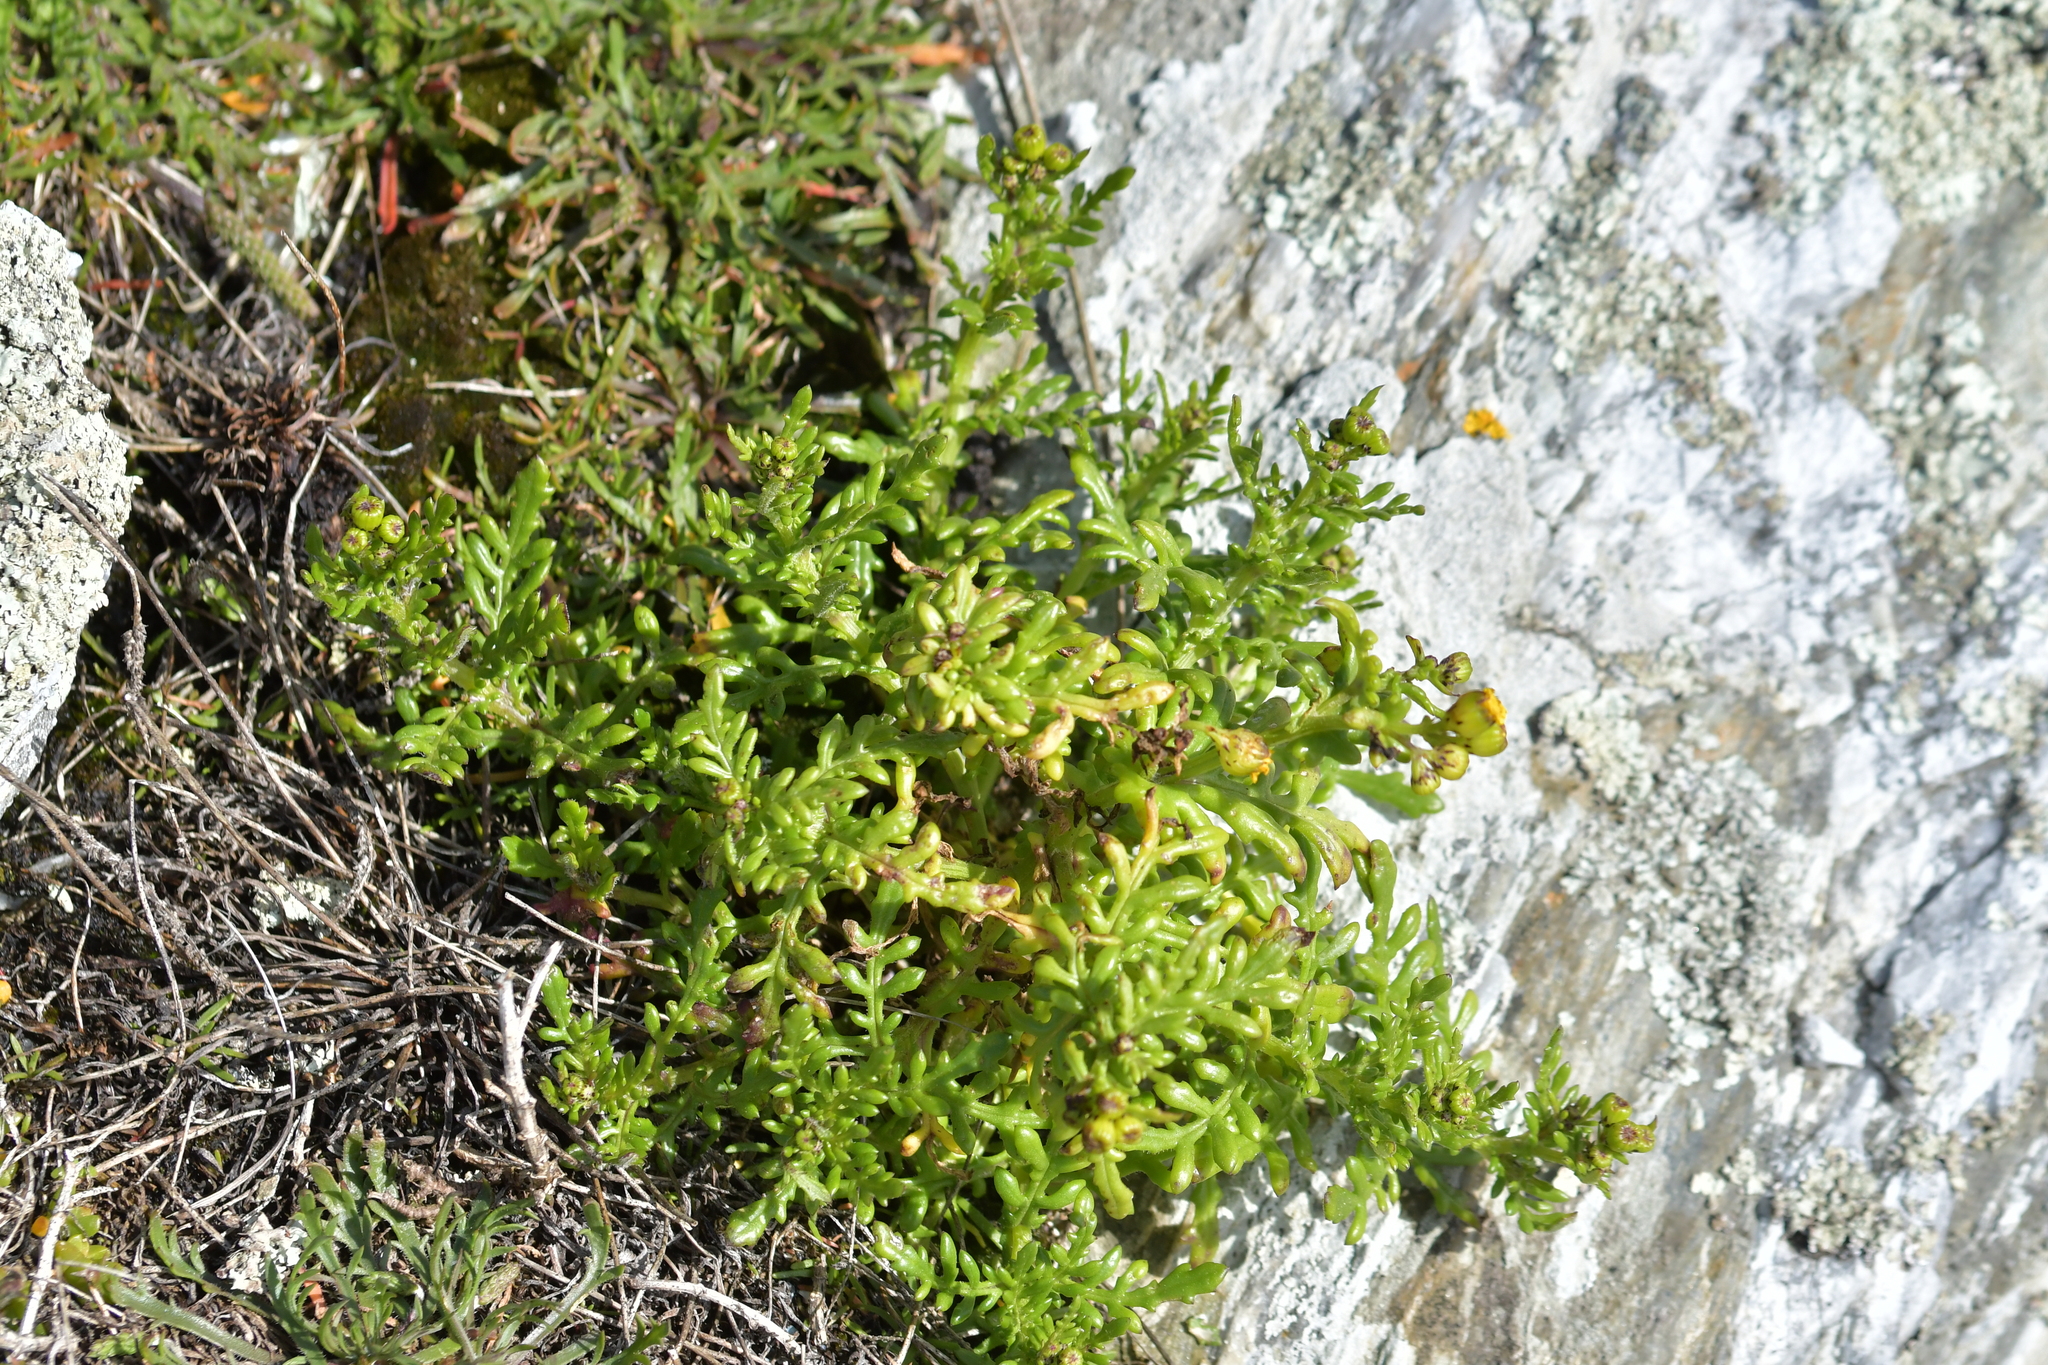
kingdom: Plantae
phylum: Tracheophyta
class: Magnoliopsida
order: Asterales
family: Asteraceae
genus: Senecio
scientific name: Senecio lautus
